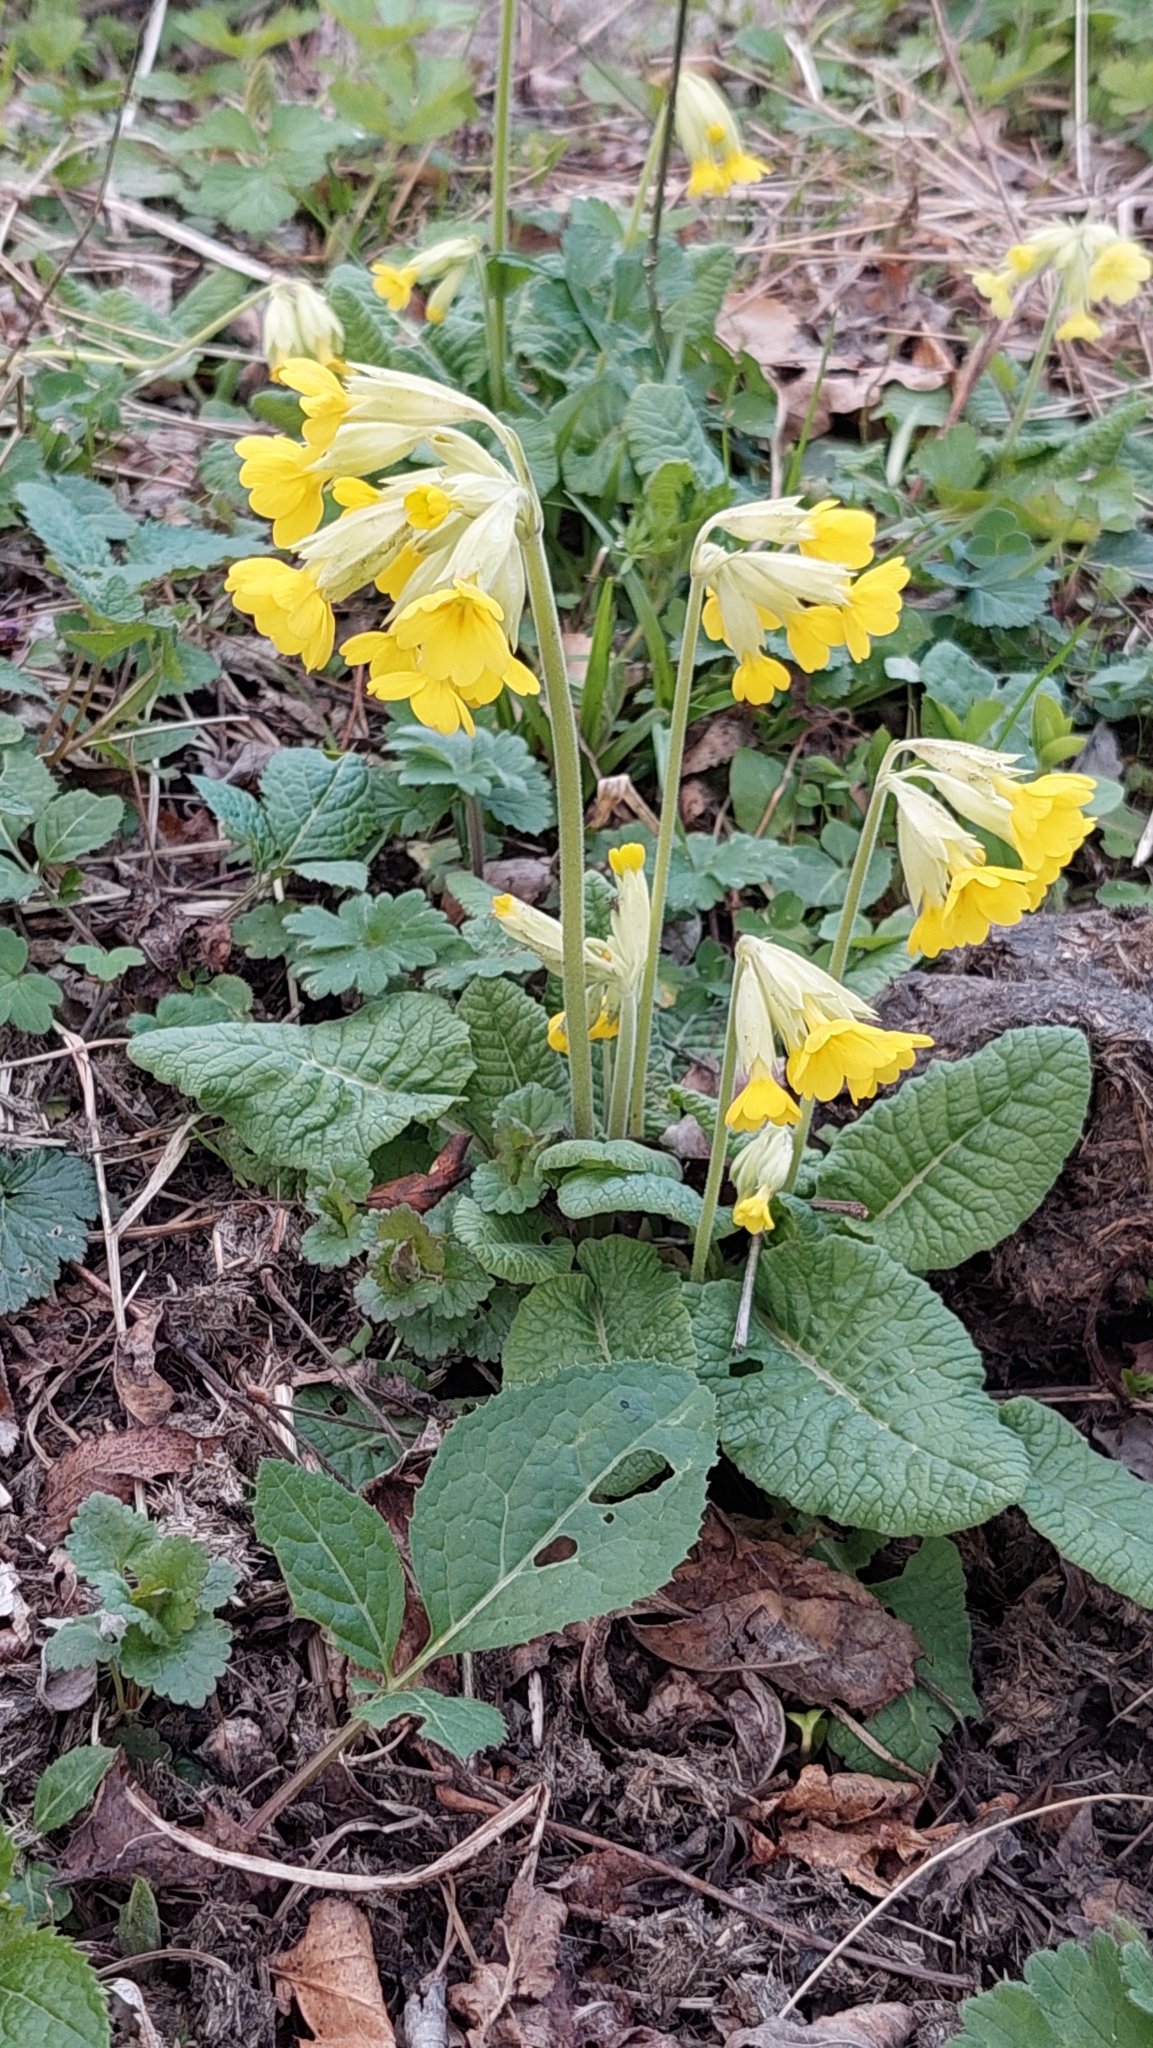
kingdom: Plantae
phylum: Tracheophyta
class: Magnoliopsida
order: Ericales
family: Primulaceae
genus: Primula
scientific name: Primula veris
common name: Cowslip
